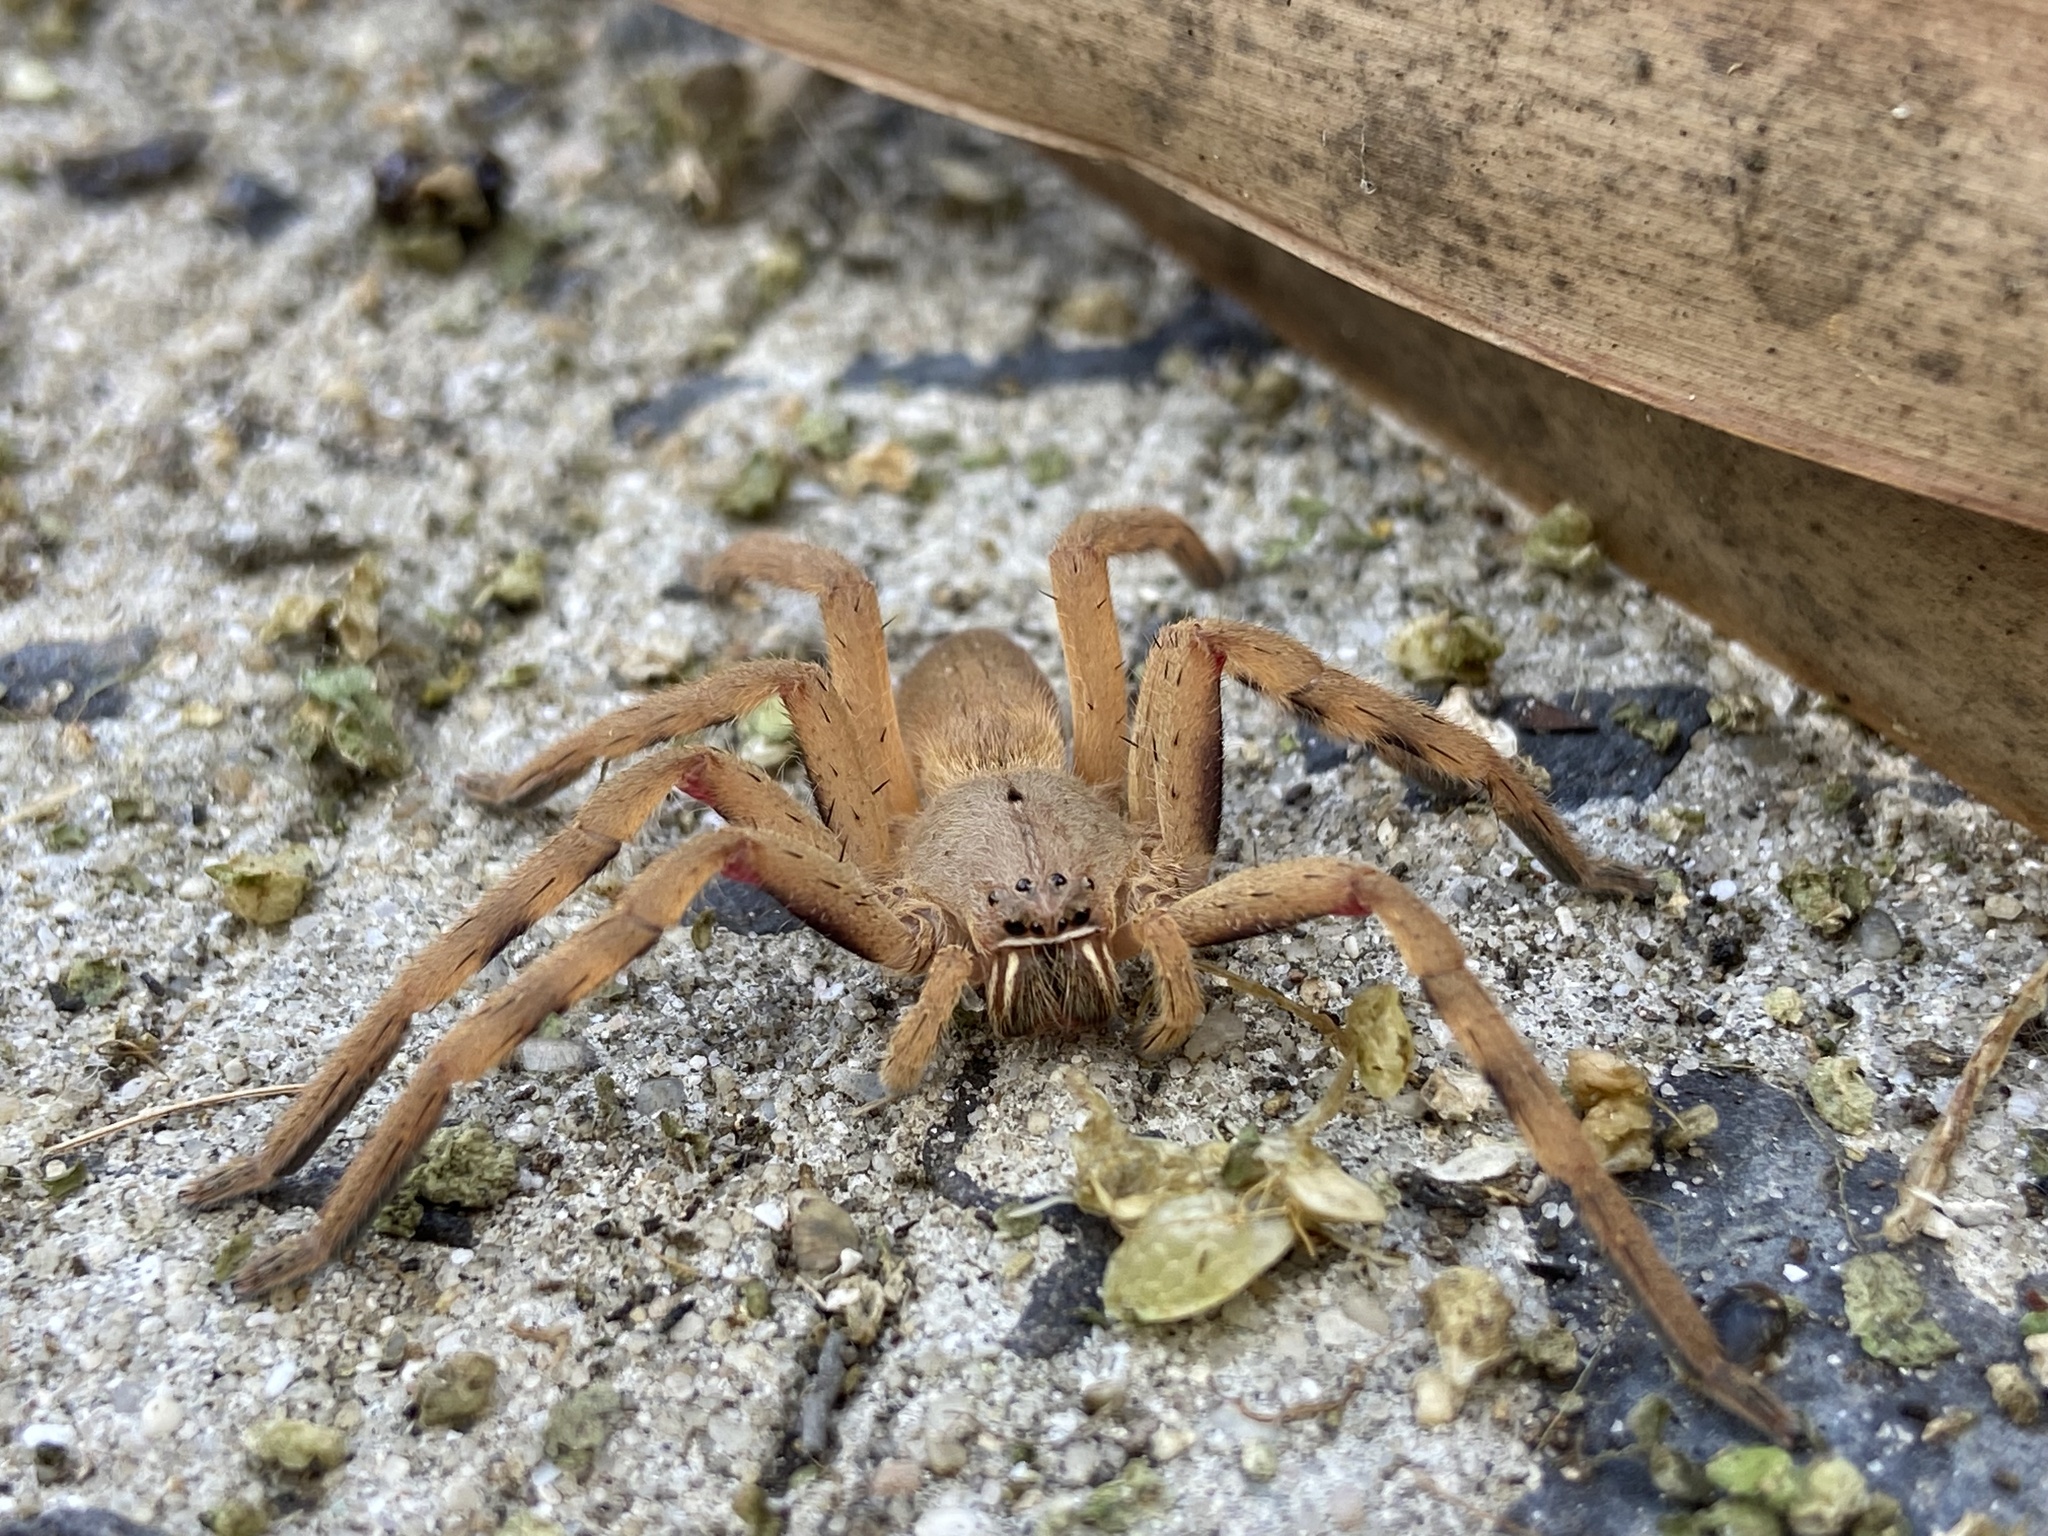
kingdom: Animalia
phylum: Arthropoda
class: Arachnida
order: Araneae
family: Sparassidae
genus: Palystes
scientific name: Palystes castaneus
